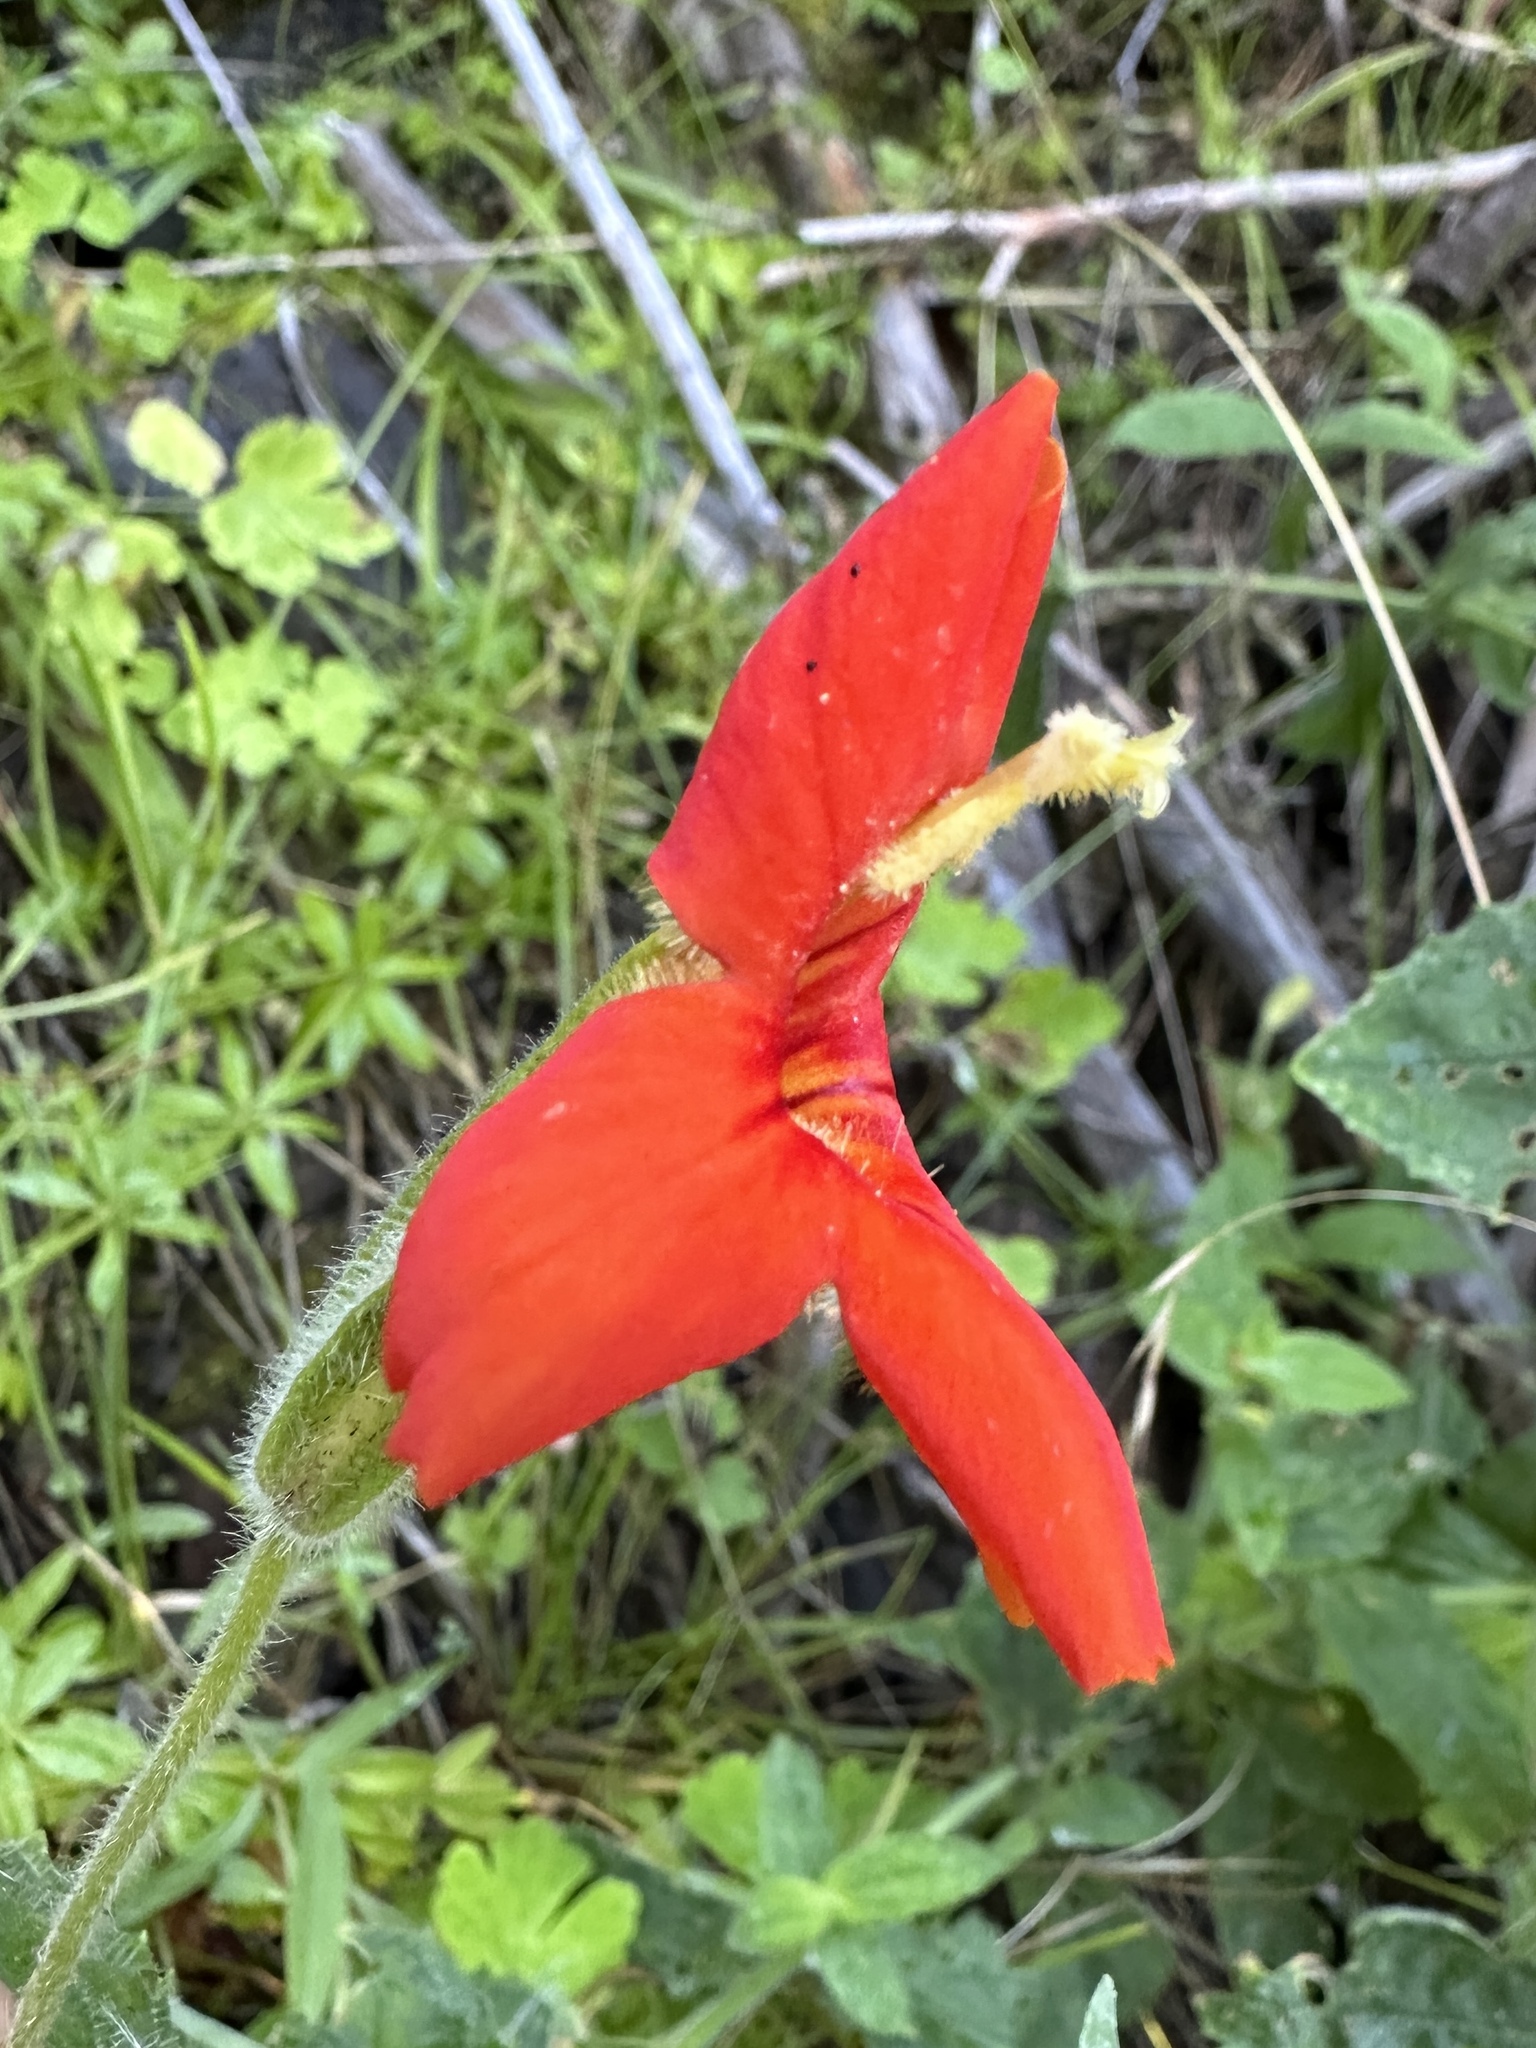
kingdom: Plantae
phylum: Tracheophyta
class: Magnoliopsida
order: Lamiales
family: Phrymaceae
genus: Erythranthe
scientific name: Erythranthe cardinalis
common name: Scarlet monkey-flower
